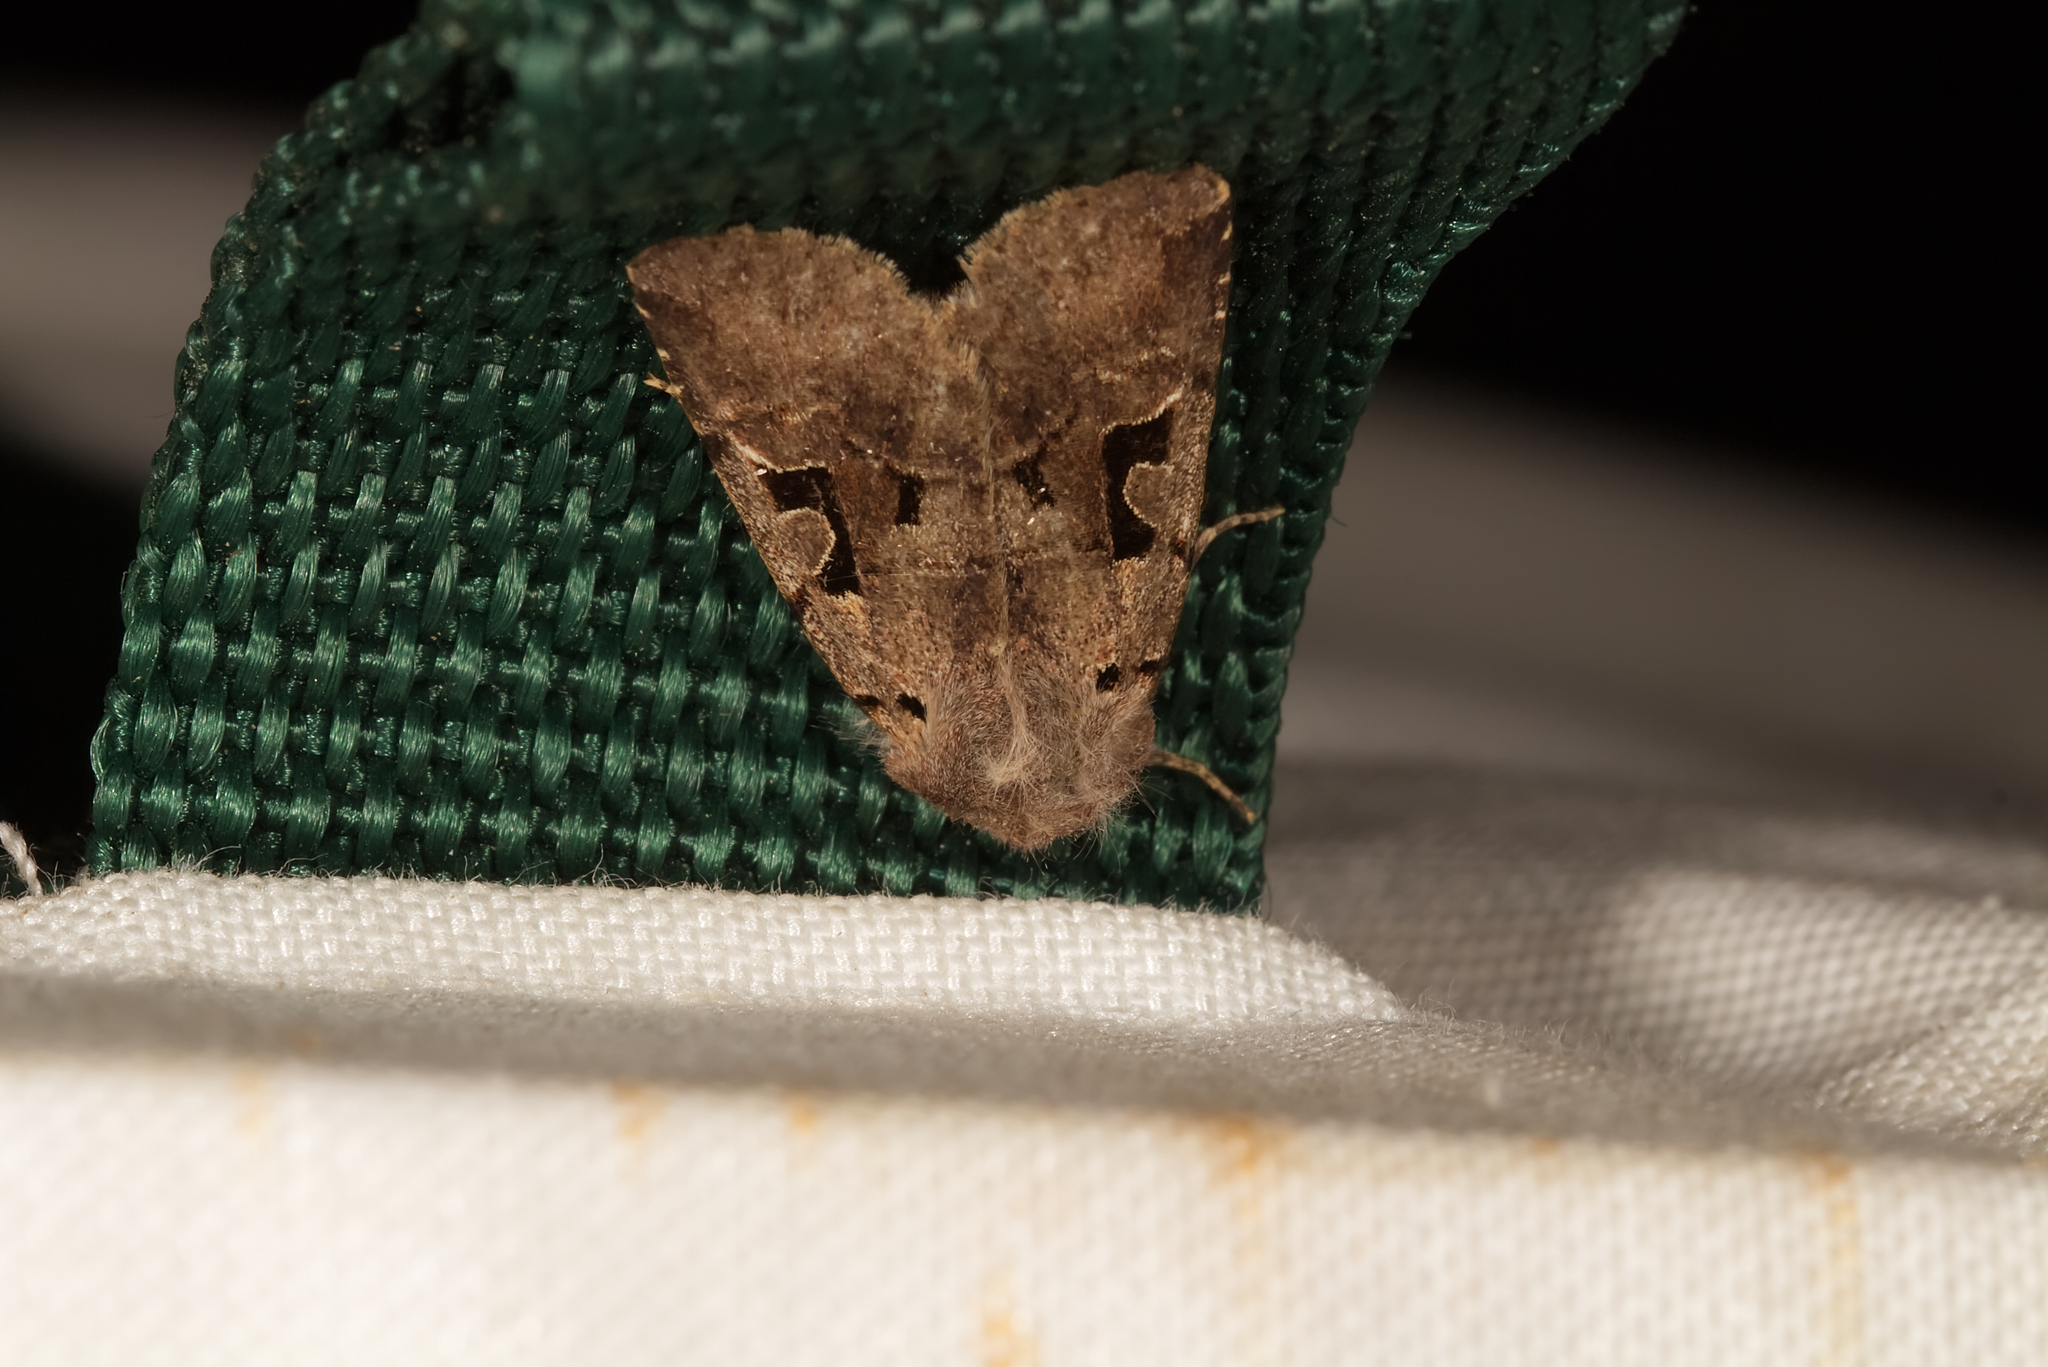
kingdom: Animalia
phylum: Arthropoda
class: Insecta
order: Lepidoptera
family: Noctuidae
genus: Orthosia
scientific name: Orthosia gothica
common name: Hebrew character
